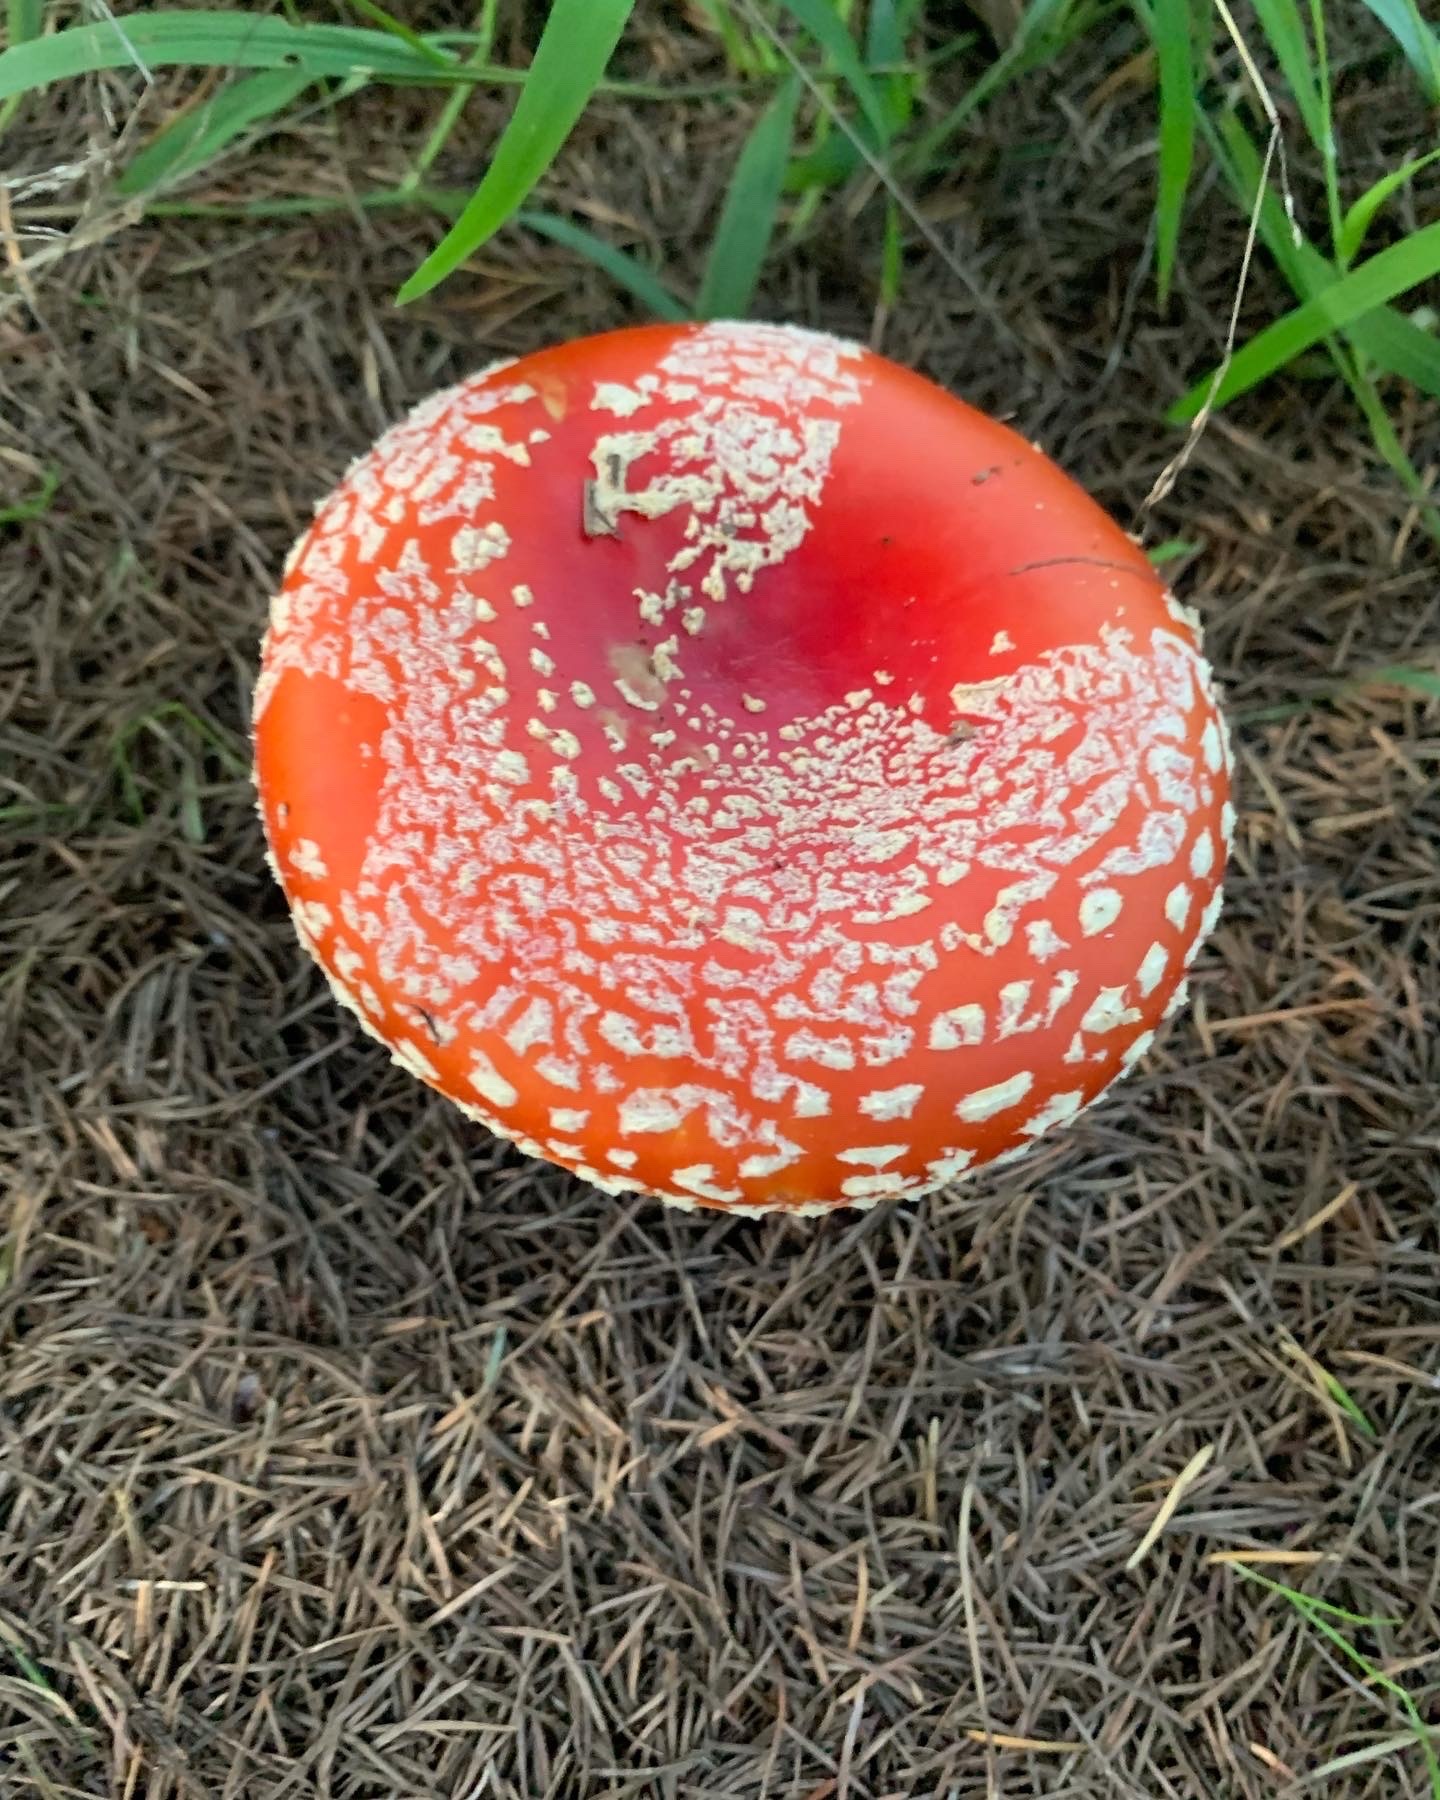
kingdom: Fungi
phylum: Basidiomycota
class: Agaricomycetes
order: Agaricales
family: Amanitaceae
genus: Amanita
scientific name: Amanita muscaria
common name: Fly agaric
